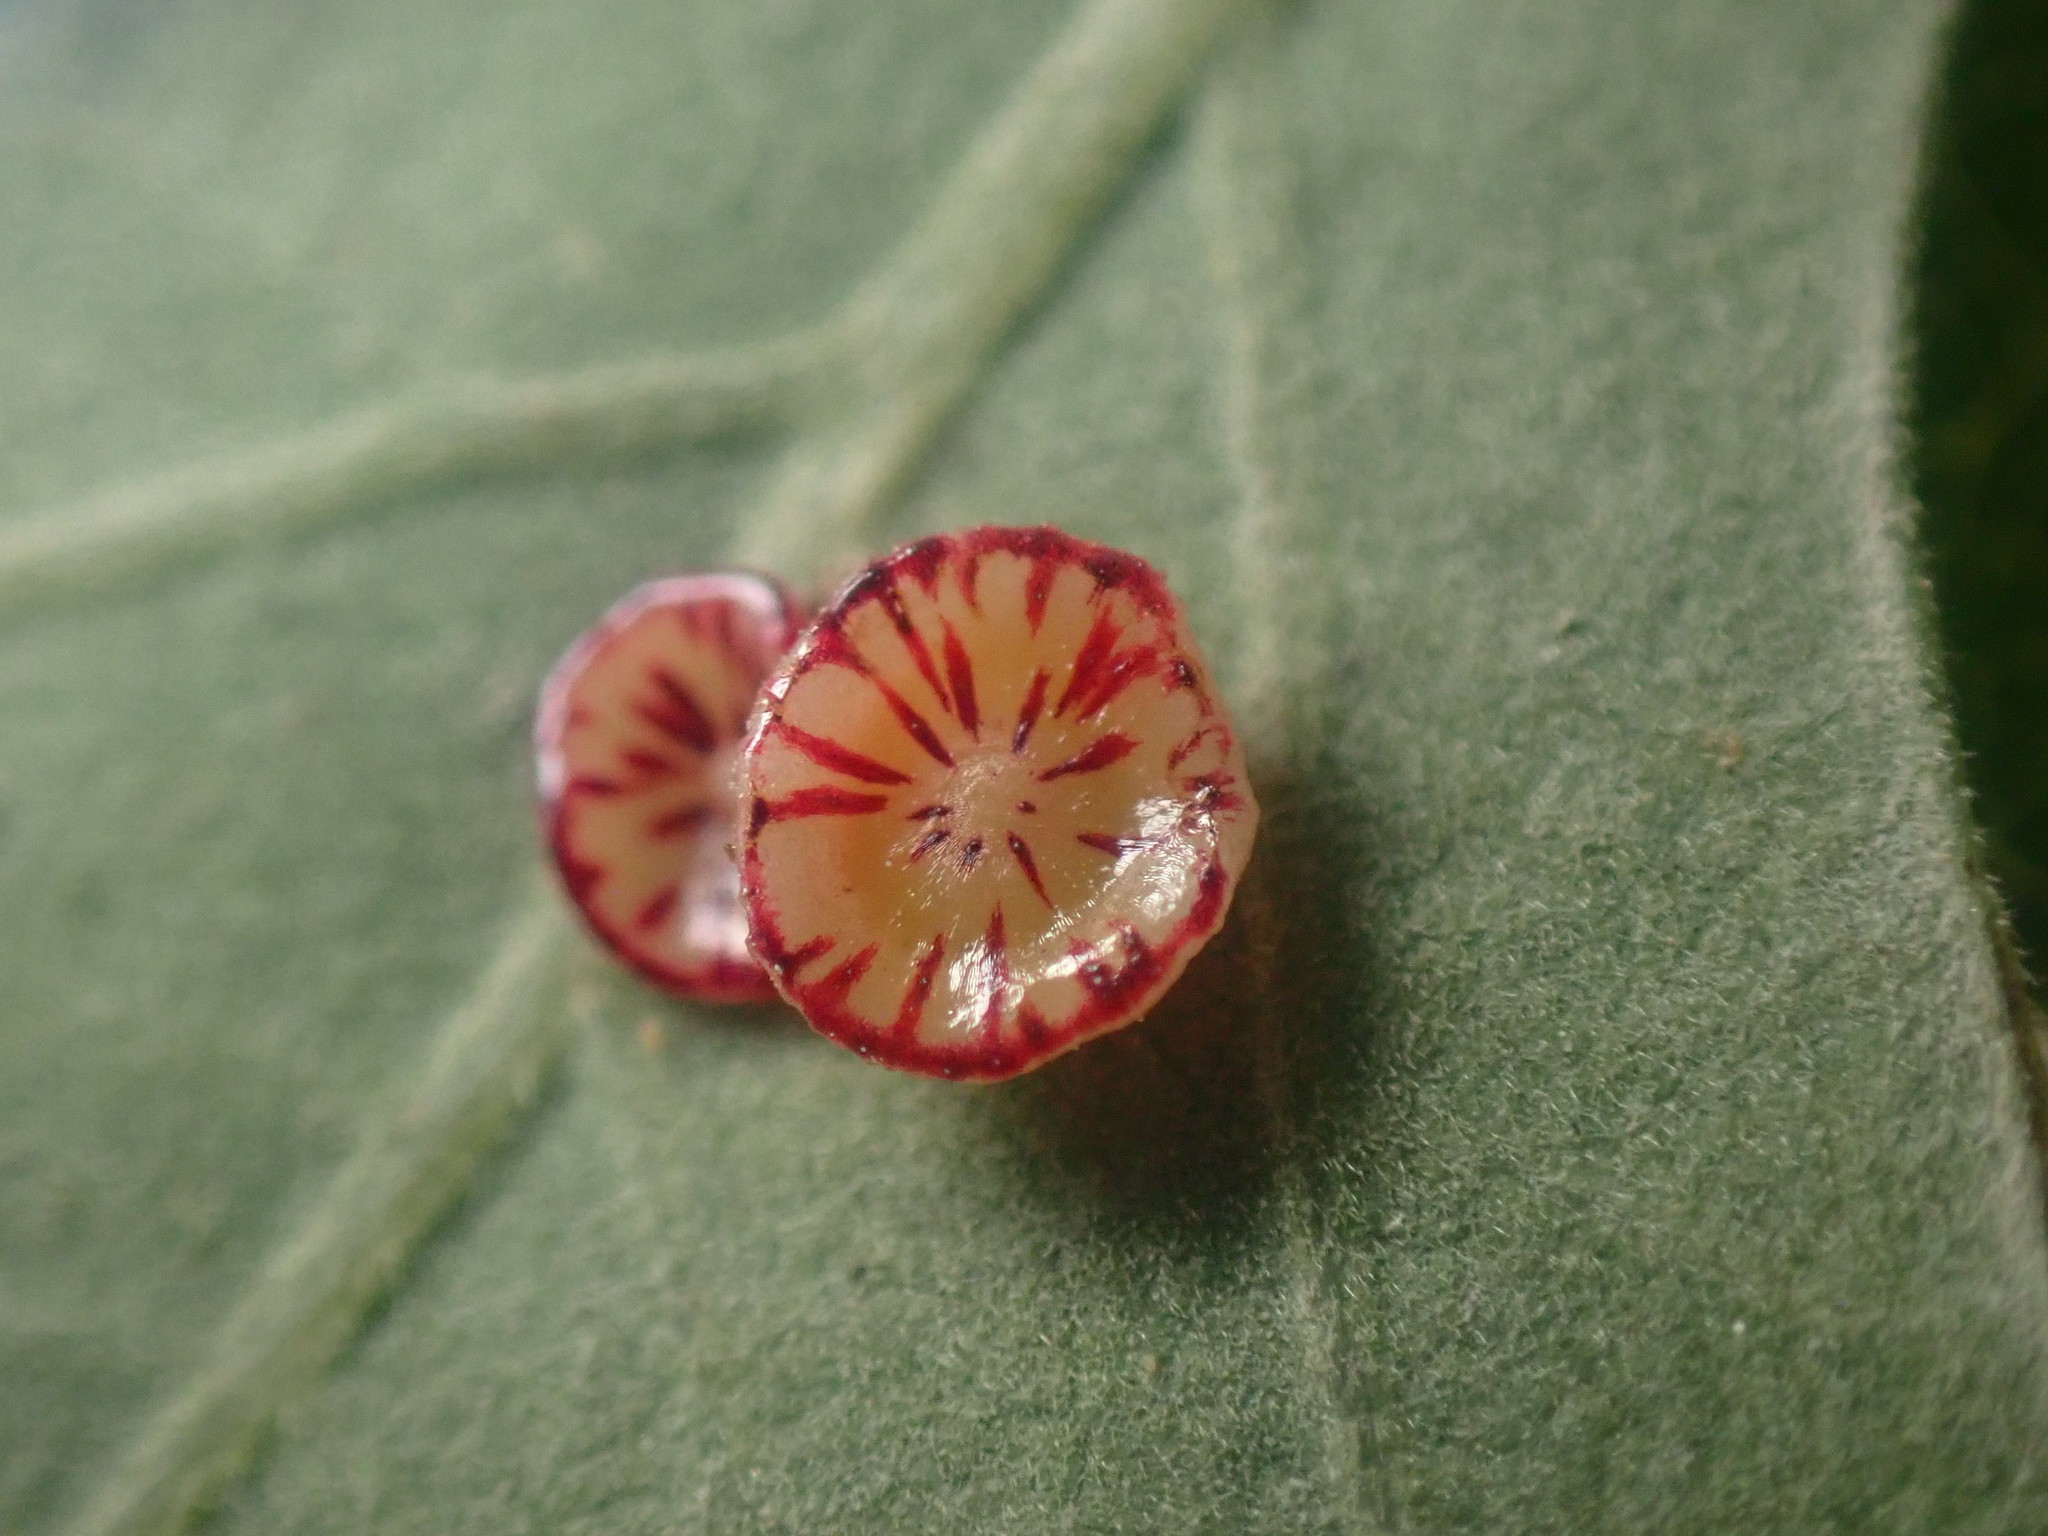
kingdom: Animalia
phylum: Arthropoda
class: Insecta
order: Hymenoptera
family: Cynipidae
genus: Andricus
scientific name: Andricus
